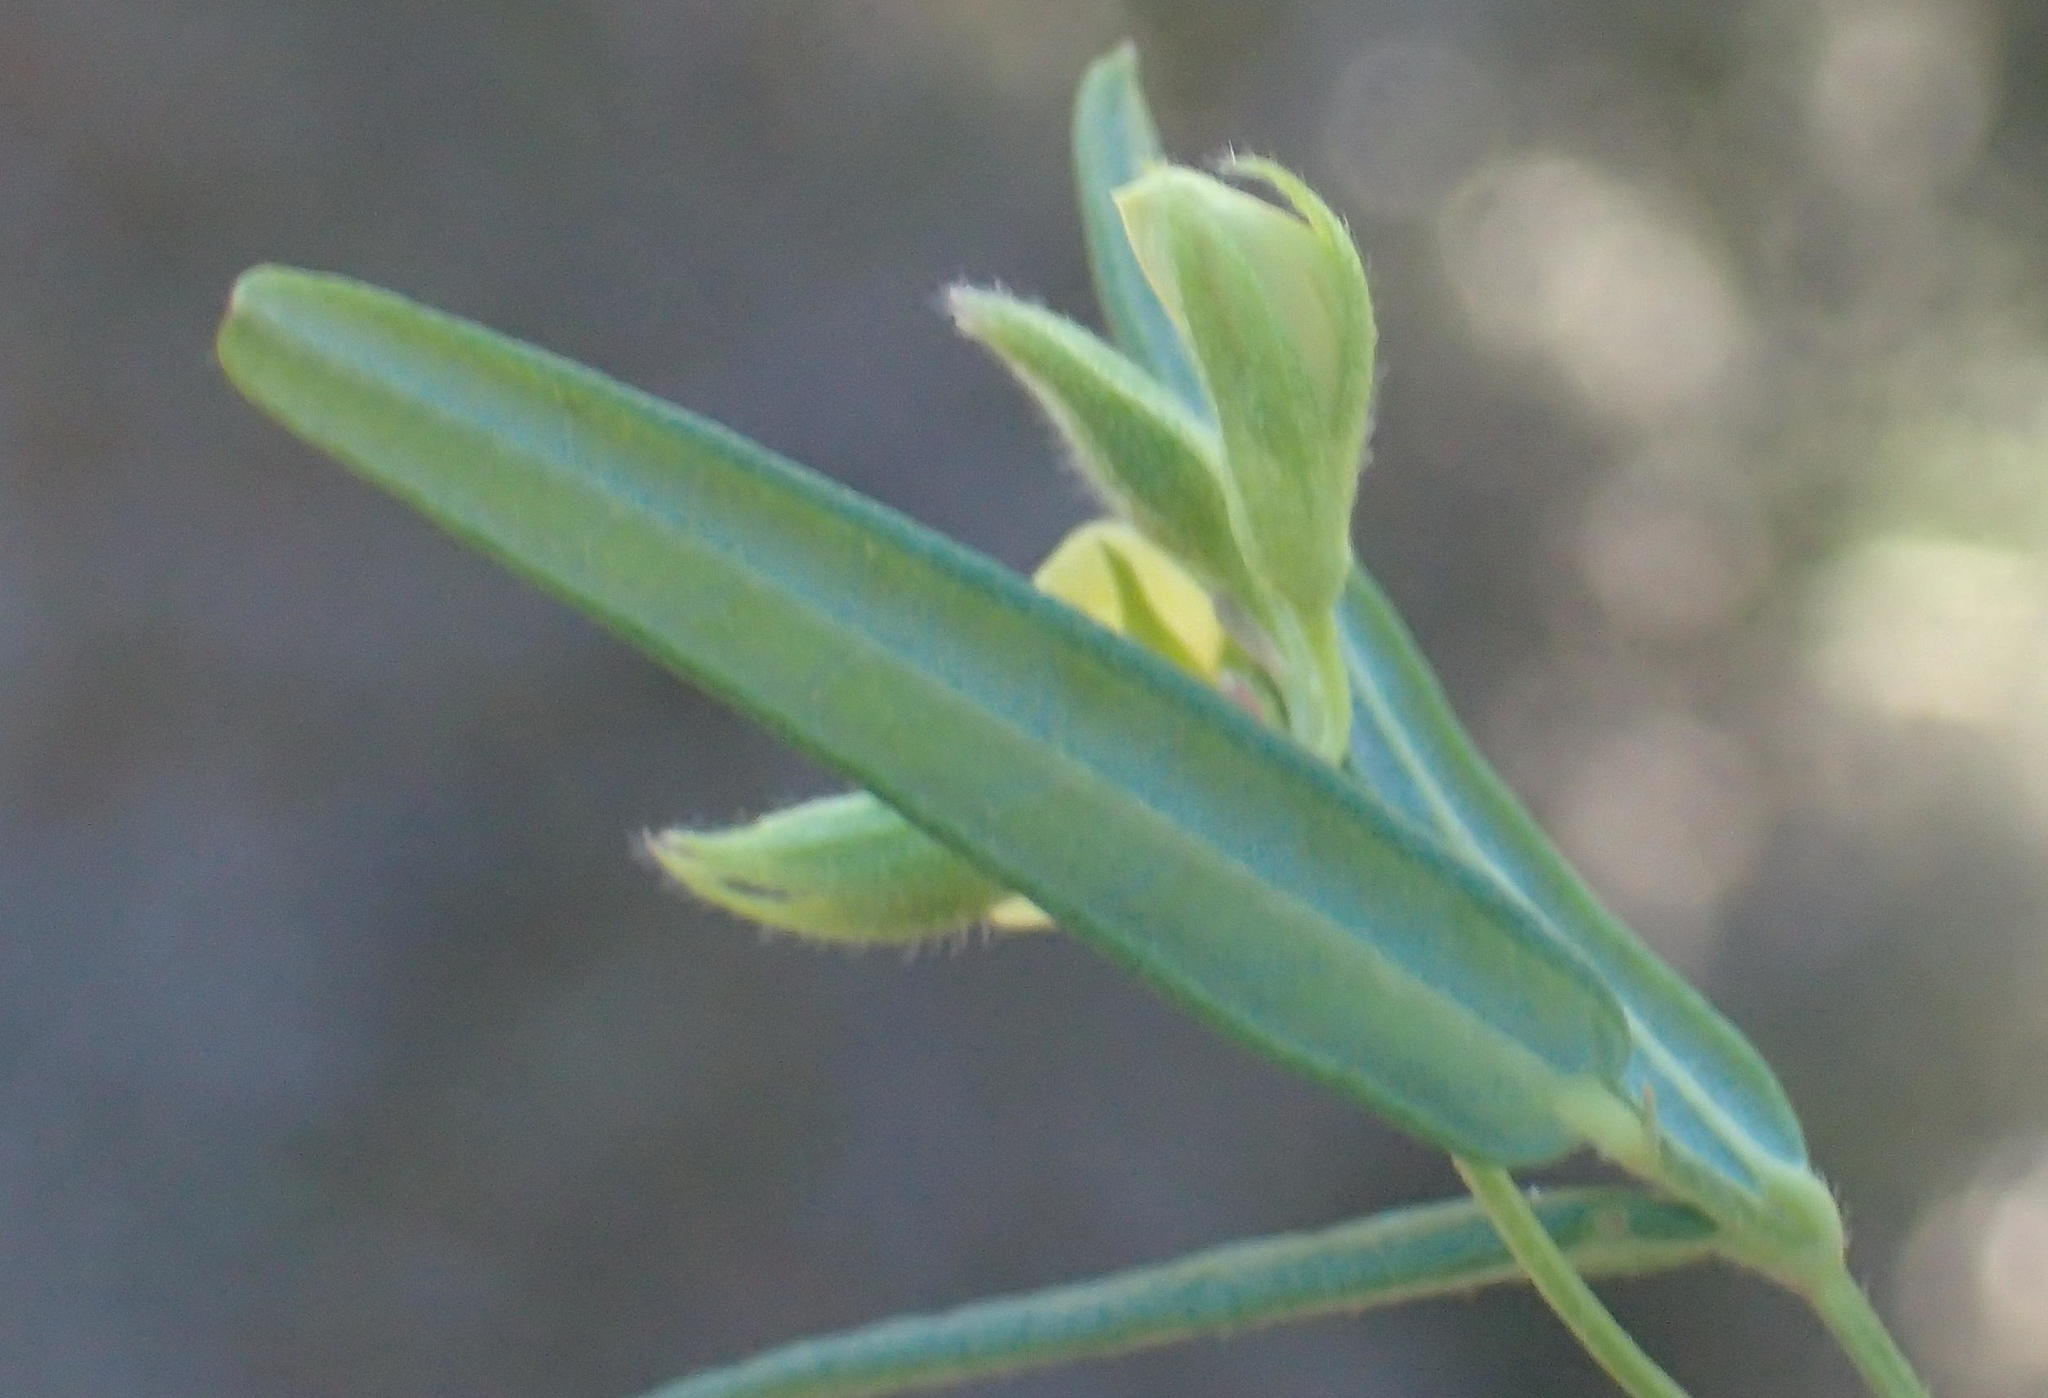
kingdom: Plantae
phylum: Tracheophyta
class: Magnoliopsida
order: Fabales
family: Fabaceae
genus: Rhynchosia
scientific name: Rhynchosia leucoscias
